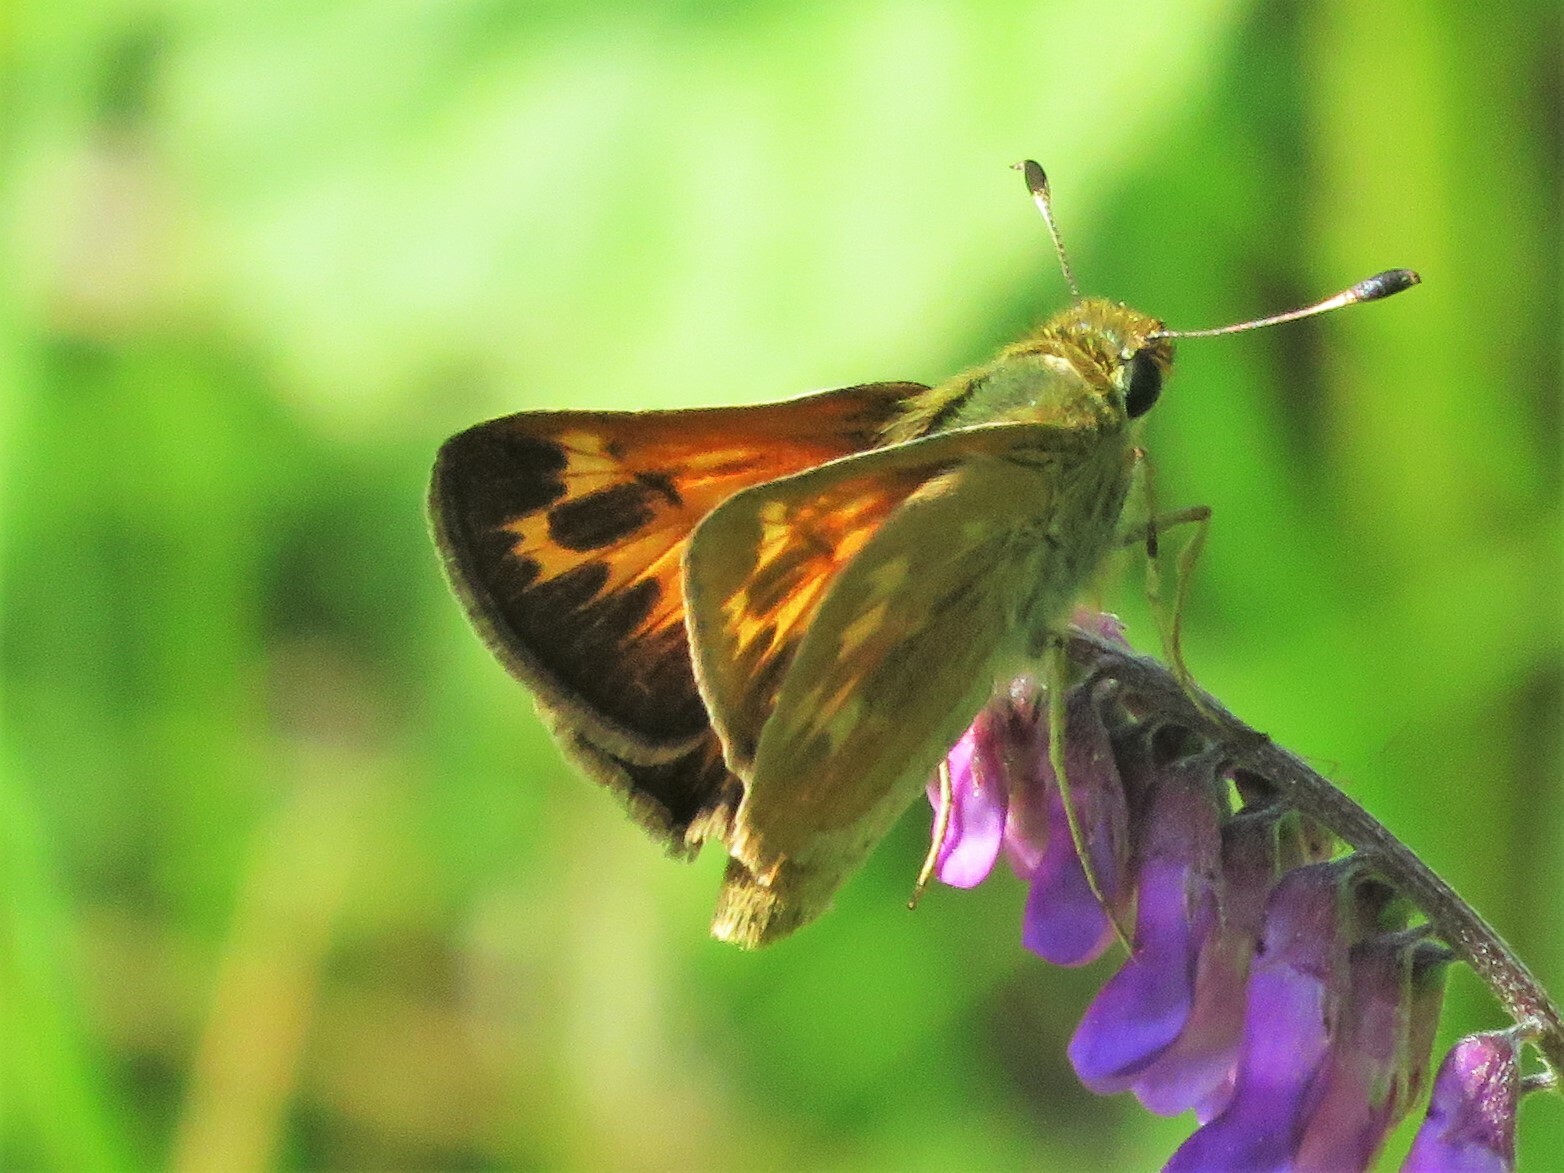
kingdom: Animalia
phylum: Arthropoda
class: Insecta
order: Lepidoptera
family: Hesperiidae
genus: Hesperia
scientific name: Hesperia sassacus
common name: Indian skipper
